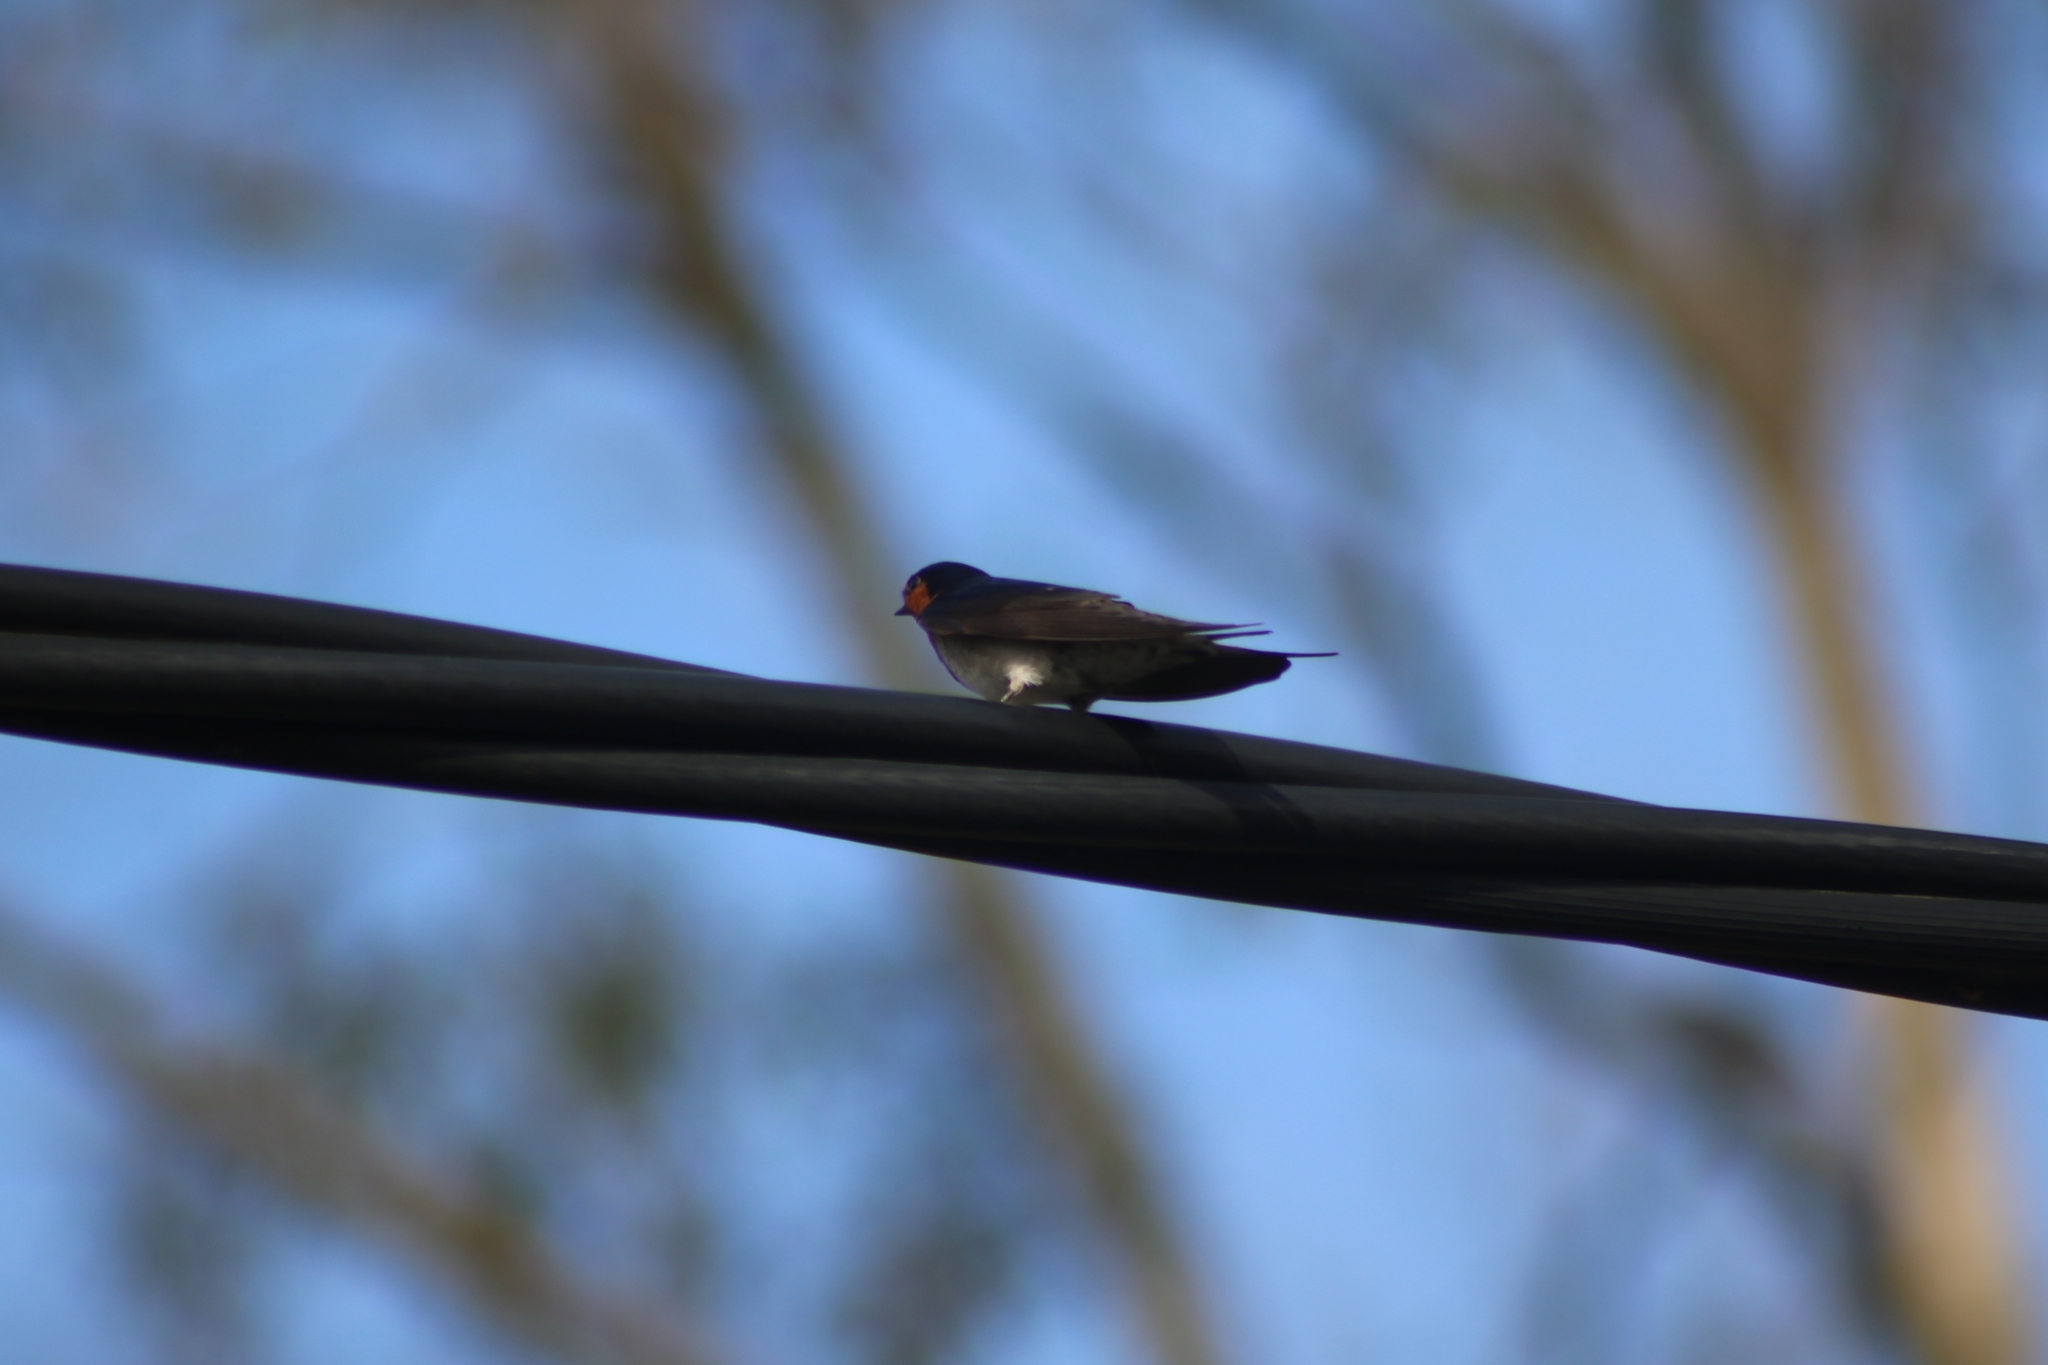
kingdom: Animalia
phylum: Chordata
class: Aves
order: Passeriformes
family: Hirundinidae
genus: Hirundo
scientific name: Hirundo neoxena
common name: Welcome swallow
